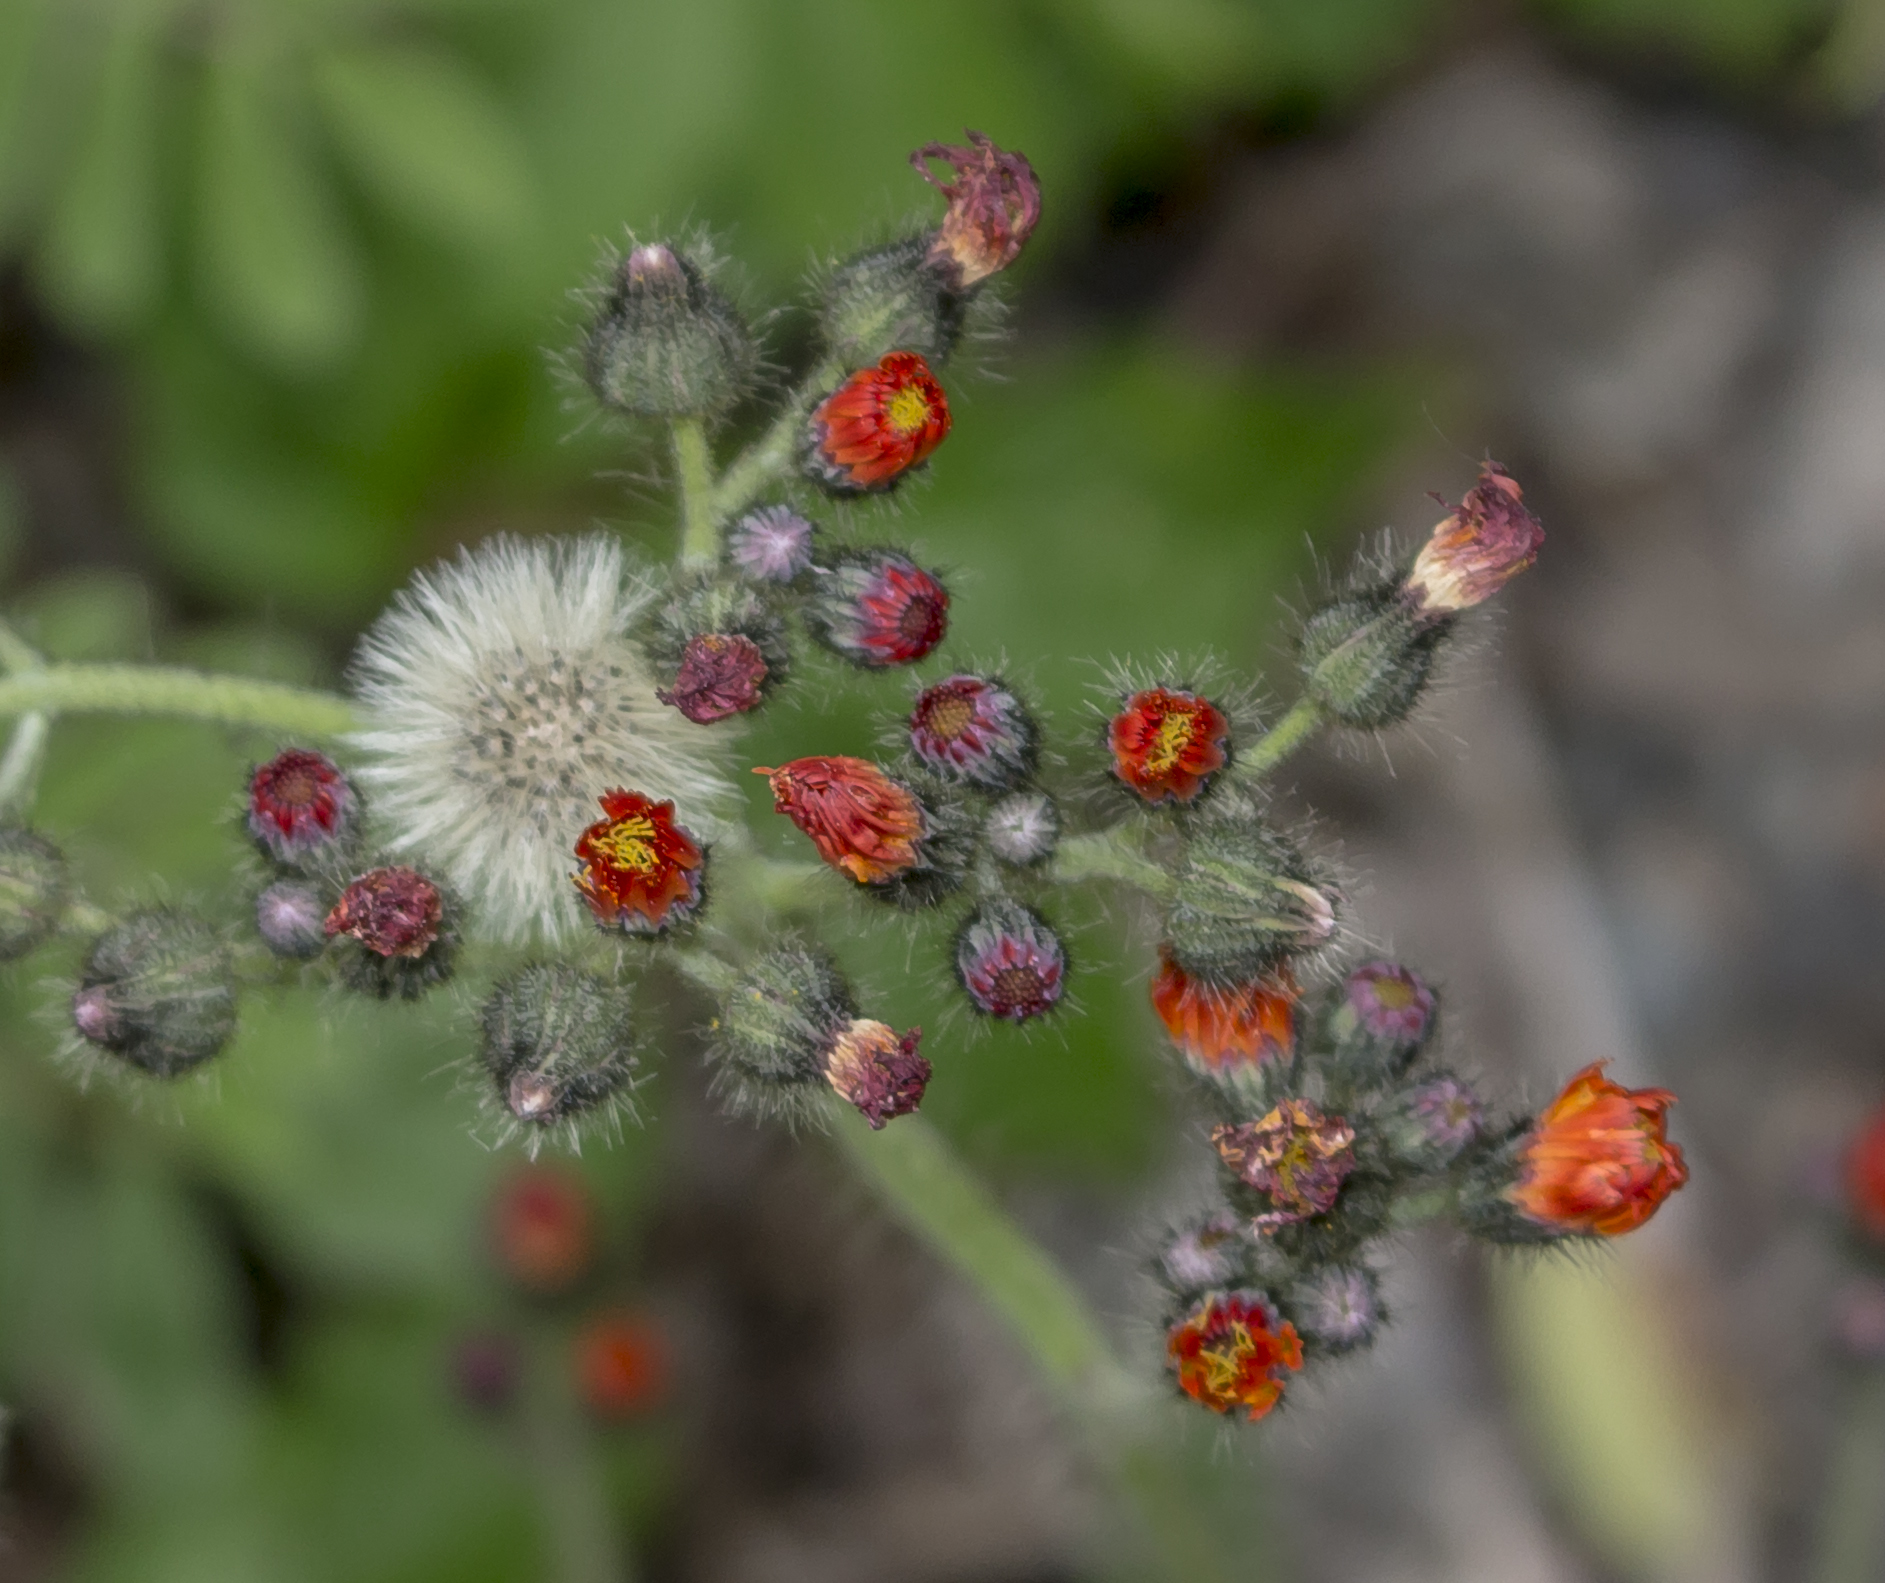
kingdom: Plantae
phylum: Tracheophyta
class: Magnoliopsida
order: Asterales
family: Asteraceae
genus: Pilosella
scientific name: Pilosella aurantiaca
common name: Fox-and-cubs
